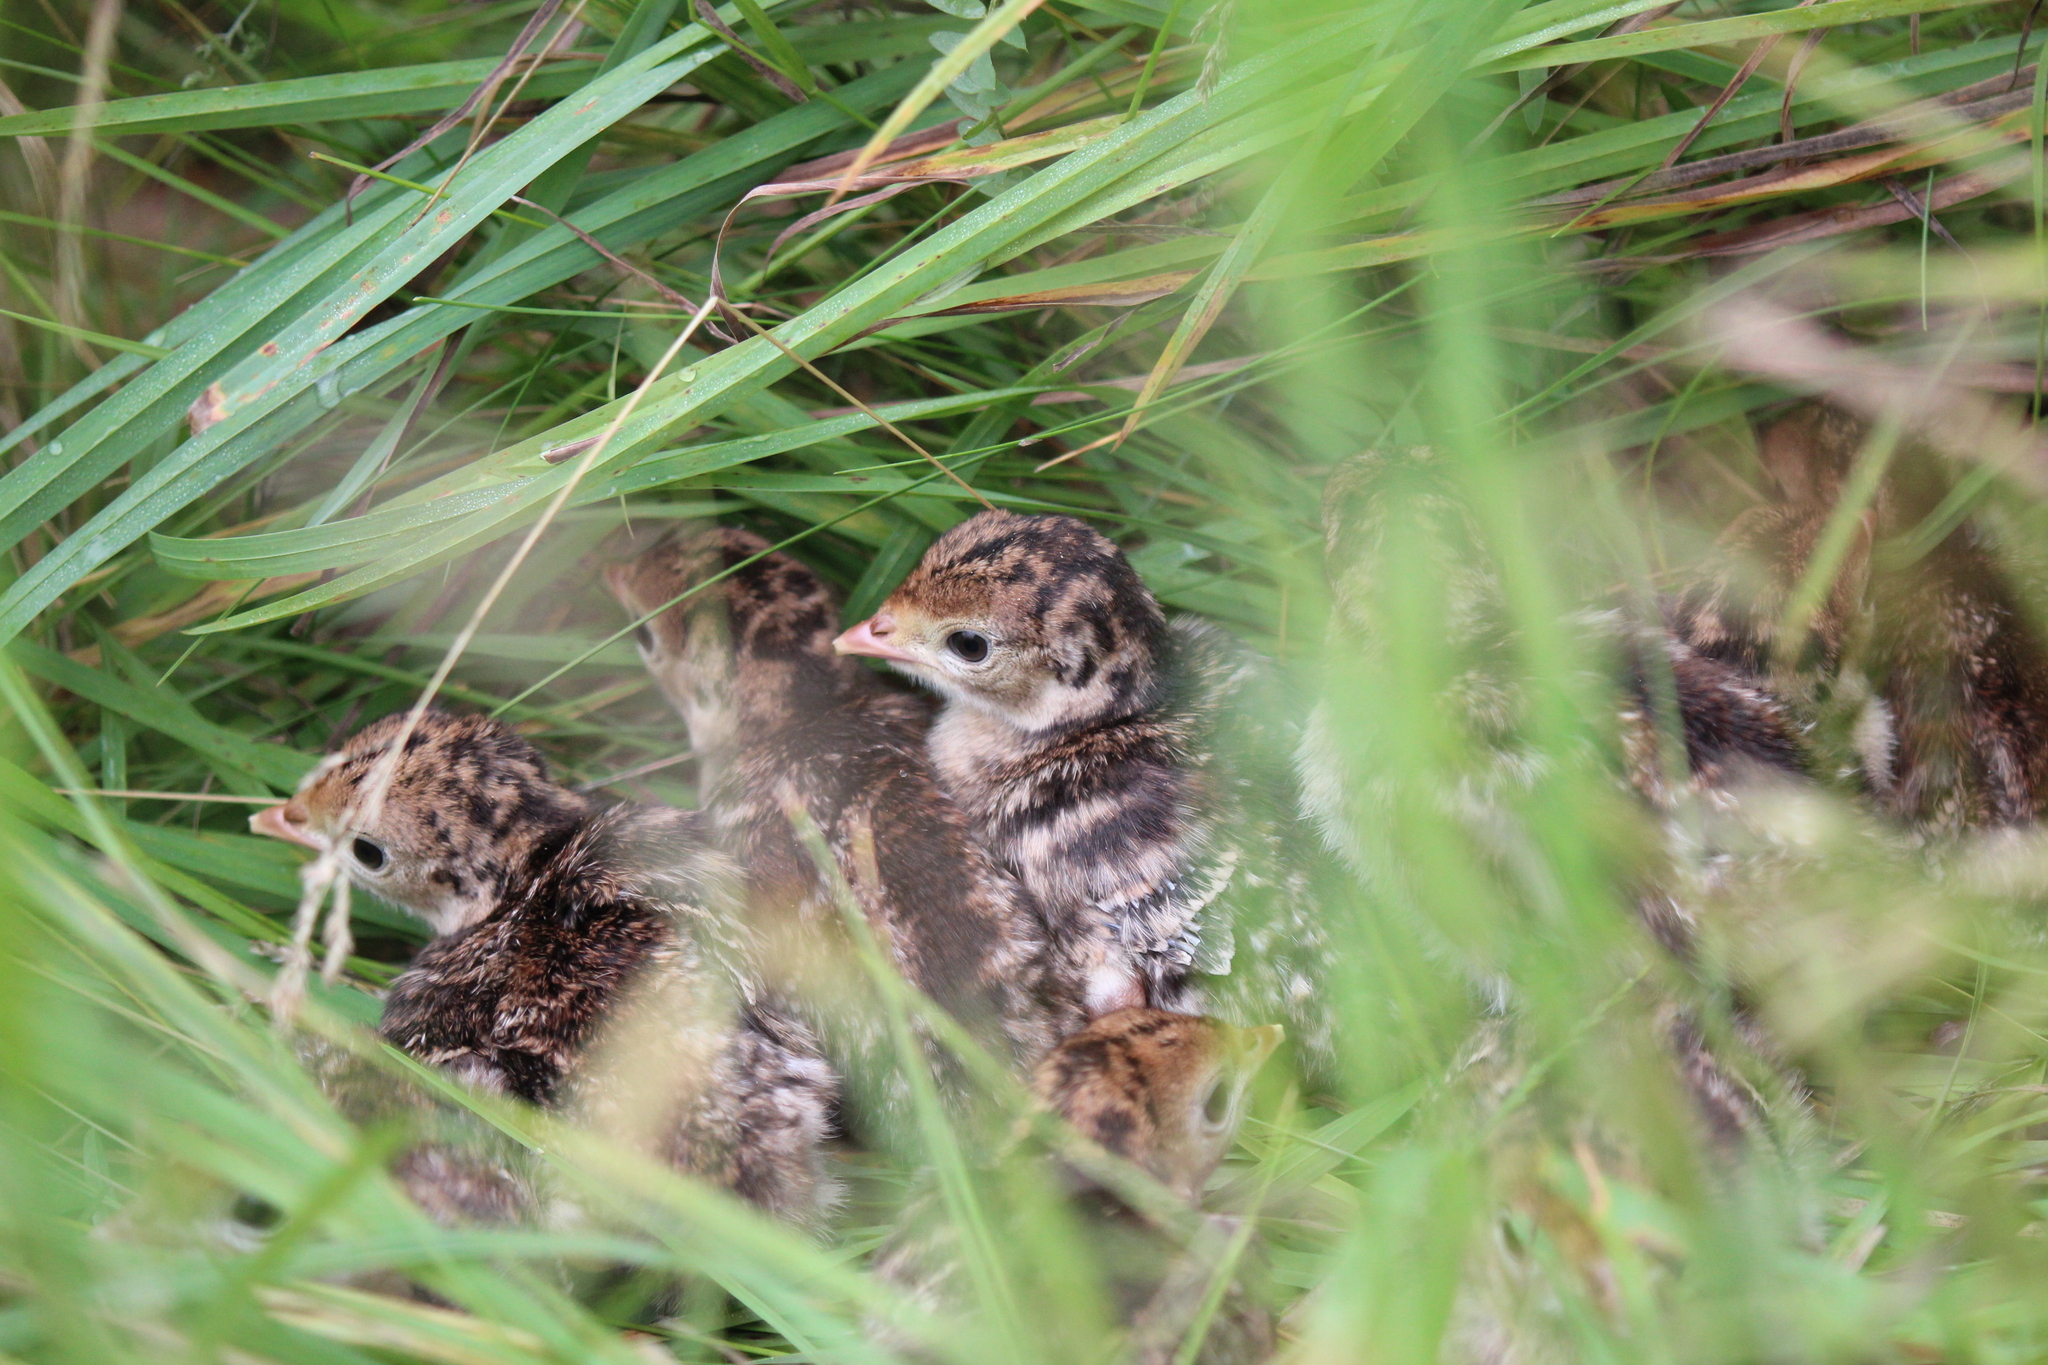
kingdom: Animalia
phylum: Chordata
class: Aves
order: Galliformes
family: Phasianidae
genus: Meleagris
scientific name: Meleagris gallopavo
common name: Wild turkey
